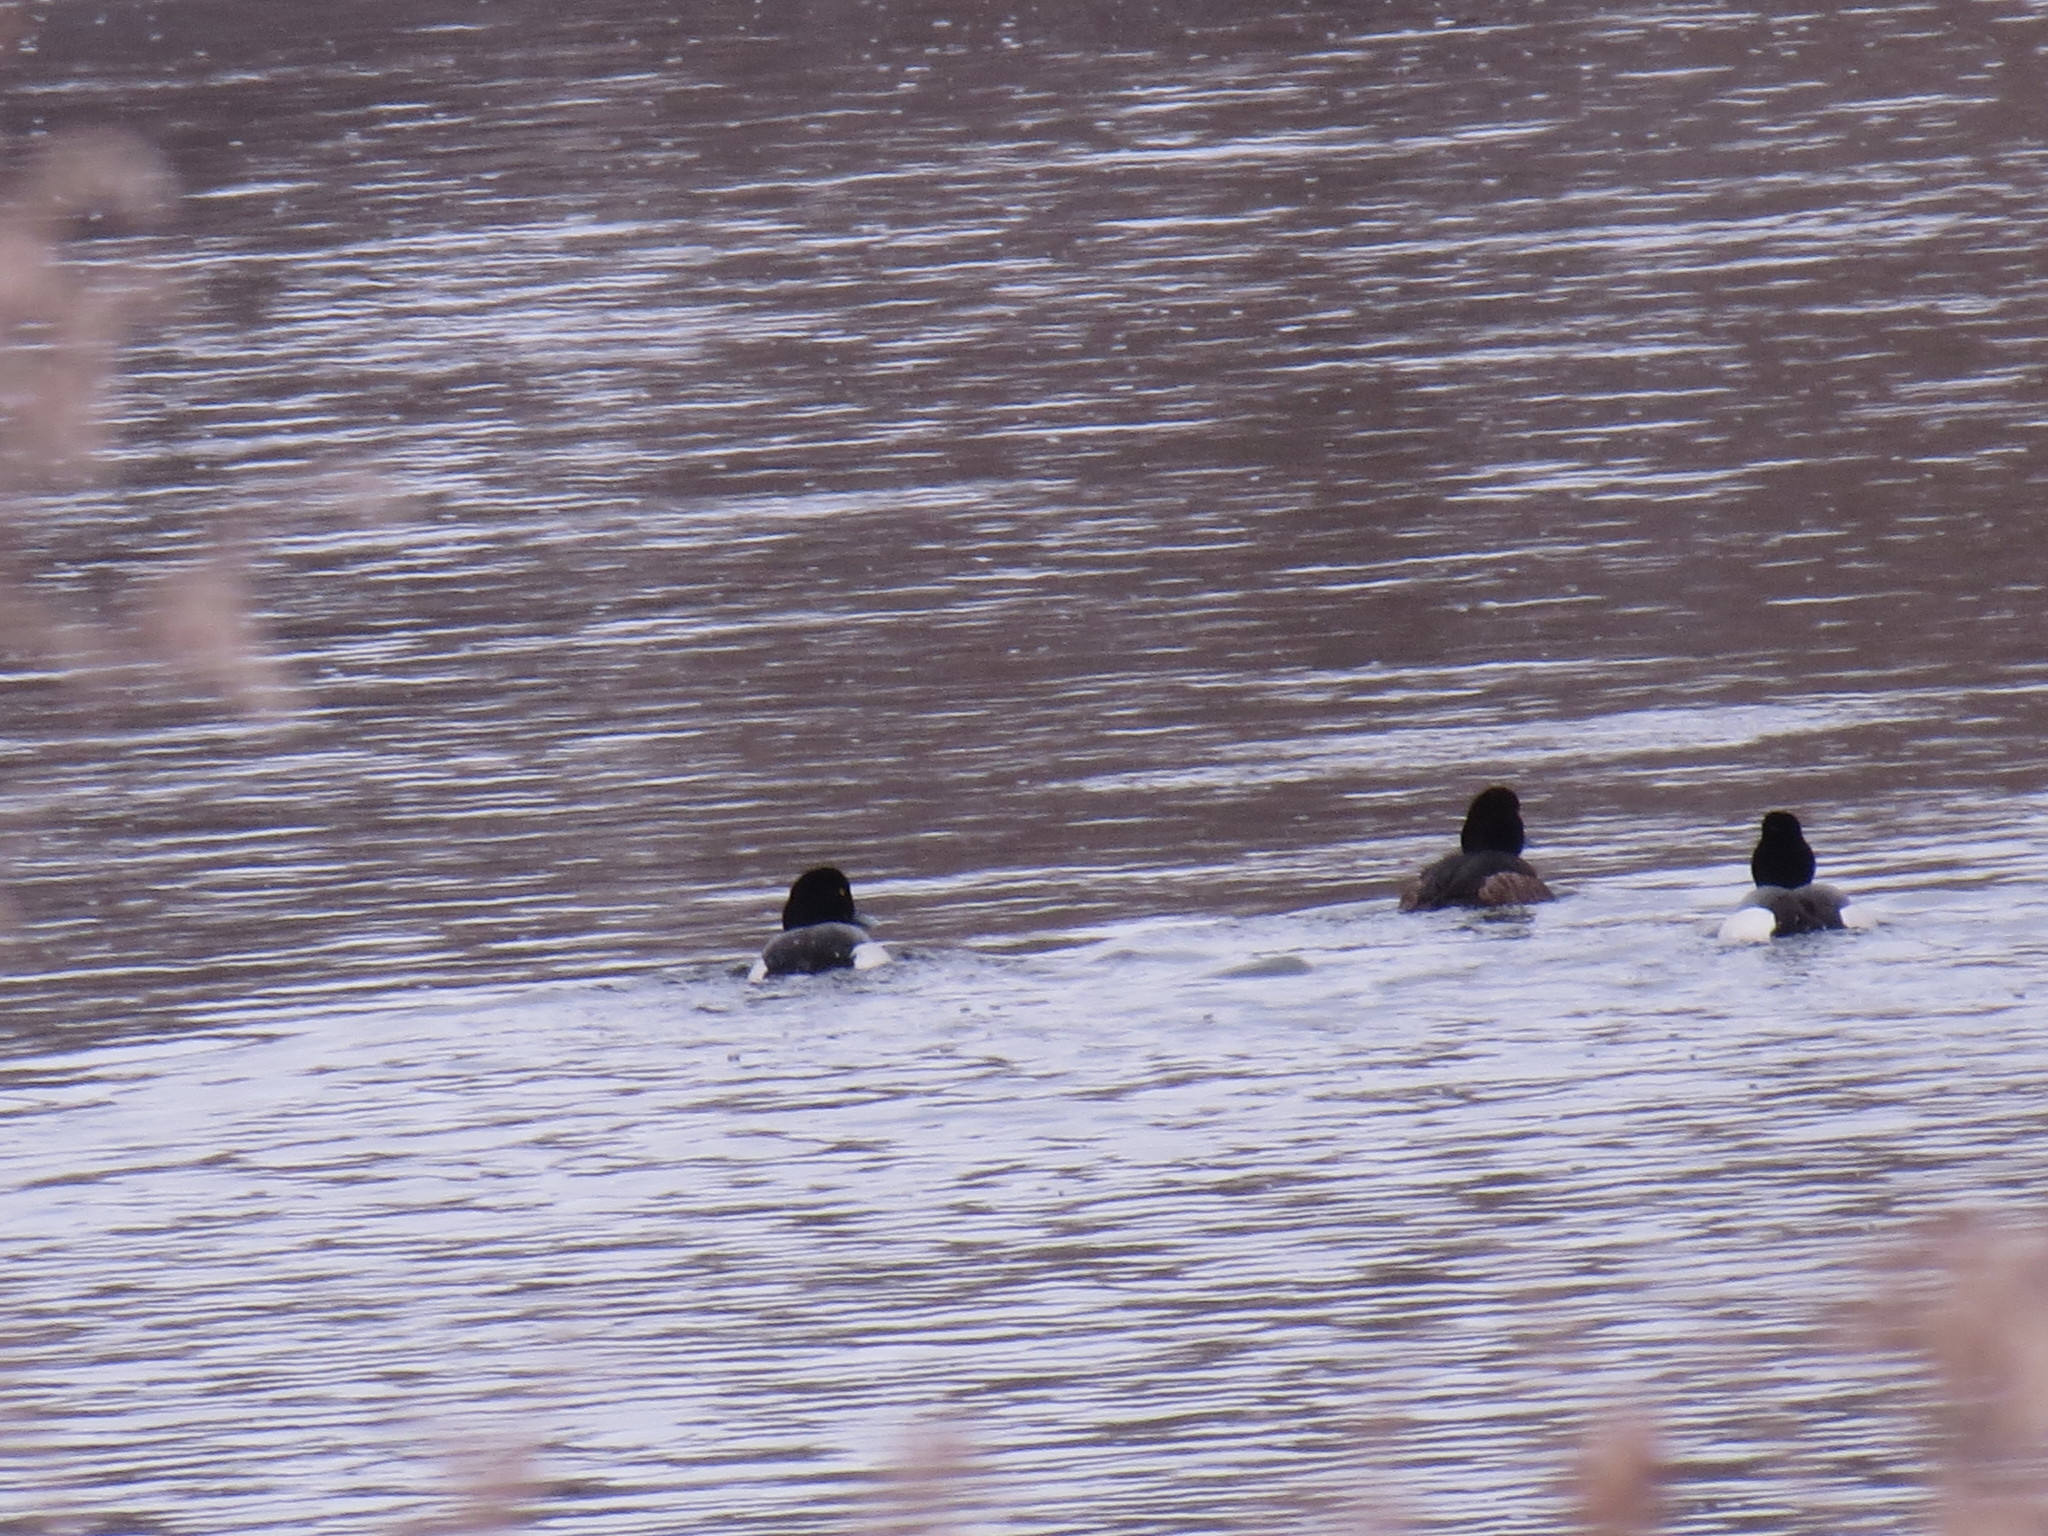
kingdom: Animalia
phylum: Chordata
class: Aves
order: Anseriformes
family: Anatidae
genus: Aythya
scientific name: Aythya marila
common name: Greater scaup
